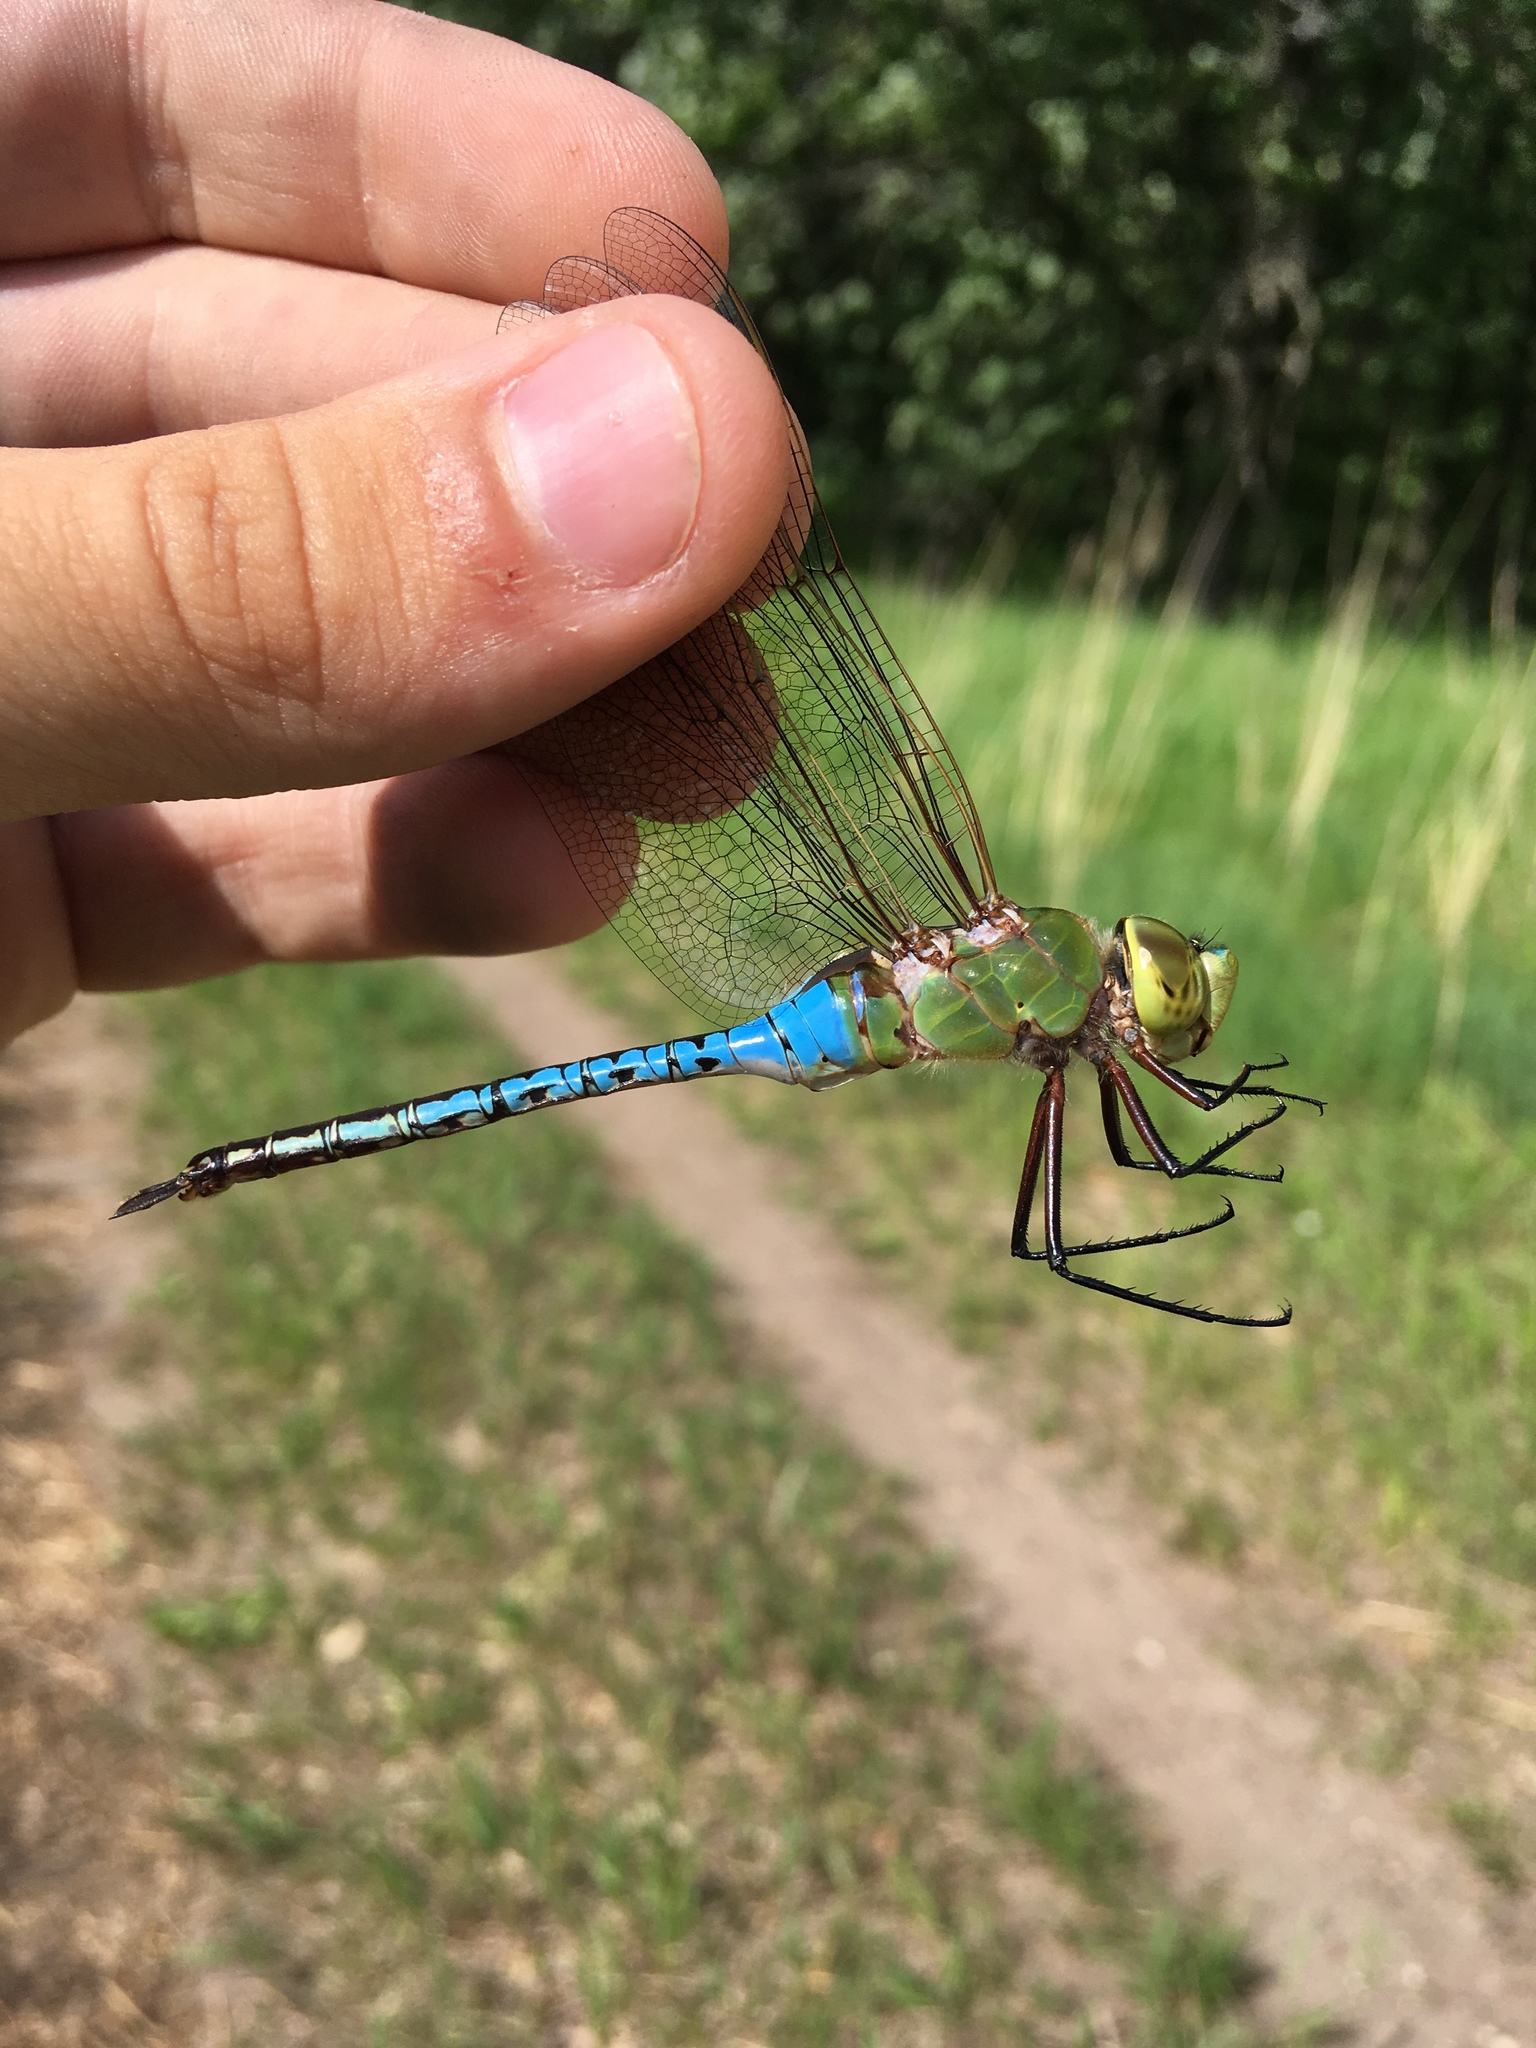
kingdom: Animalia
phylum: Arthropoda
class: Insecta
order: Odonata
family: Aeshnidae
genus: Anax
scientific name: Anax junius
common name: Common green darner
